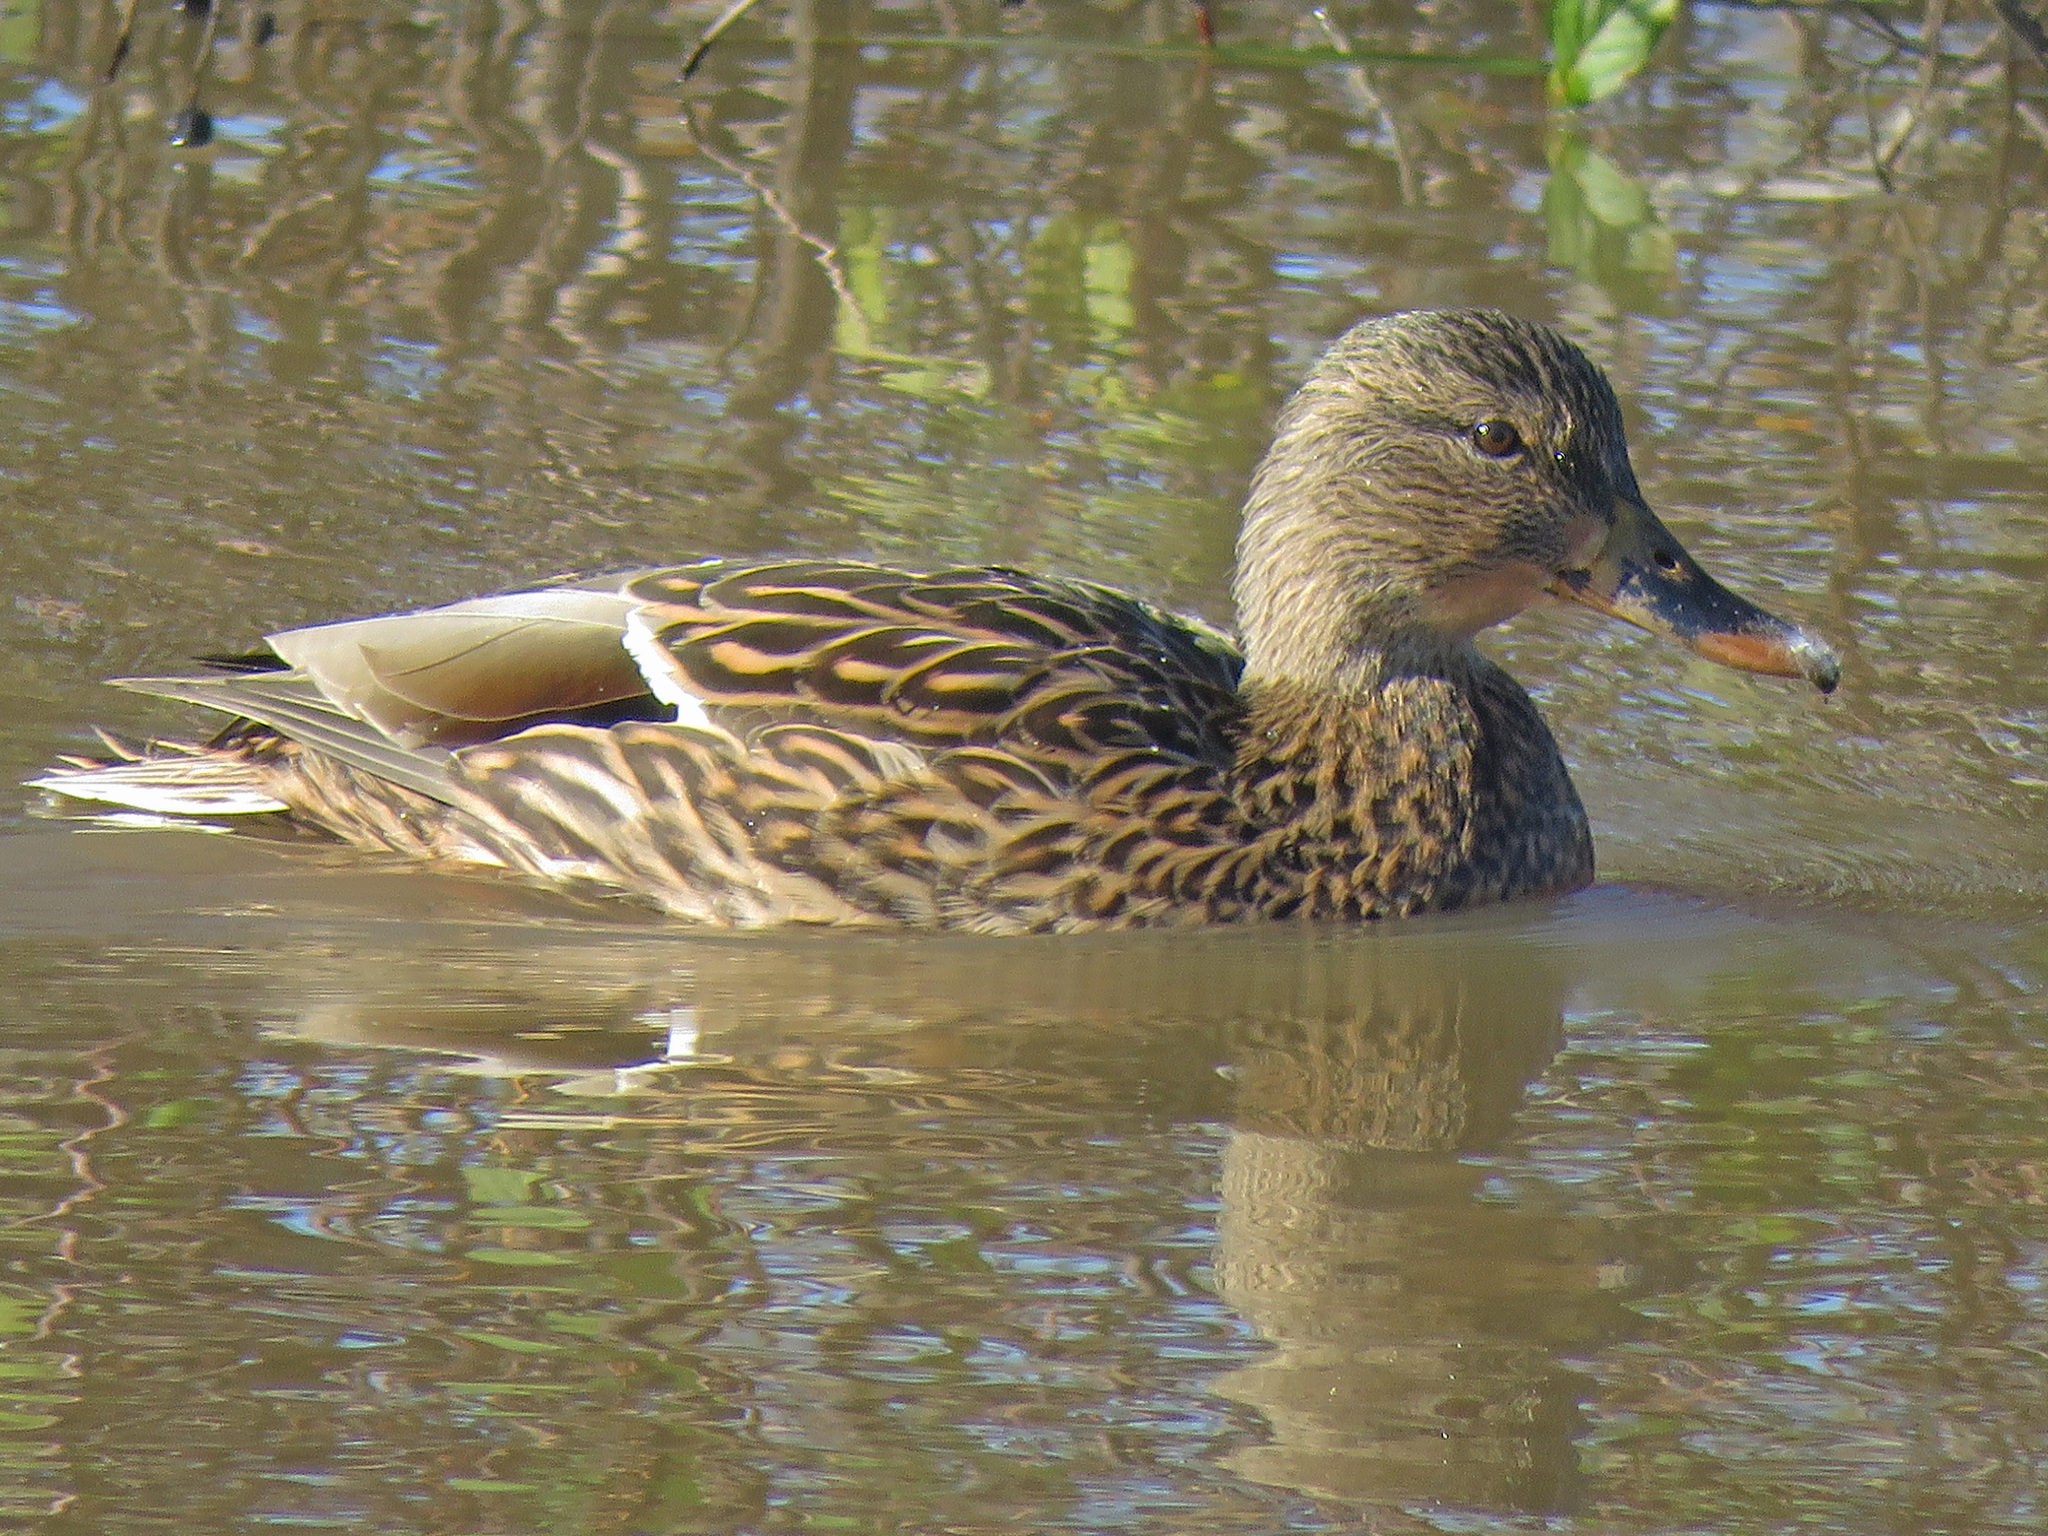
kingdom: Animalia
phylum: Chordata
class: Aves
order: Anseriformes
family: Anatidae
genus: Anas
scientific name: Anas platyrhynchos
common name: Mallard
